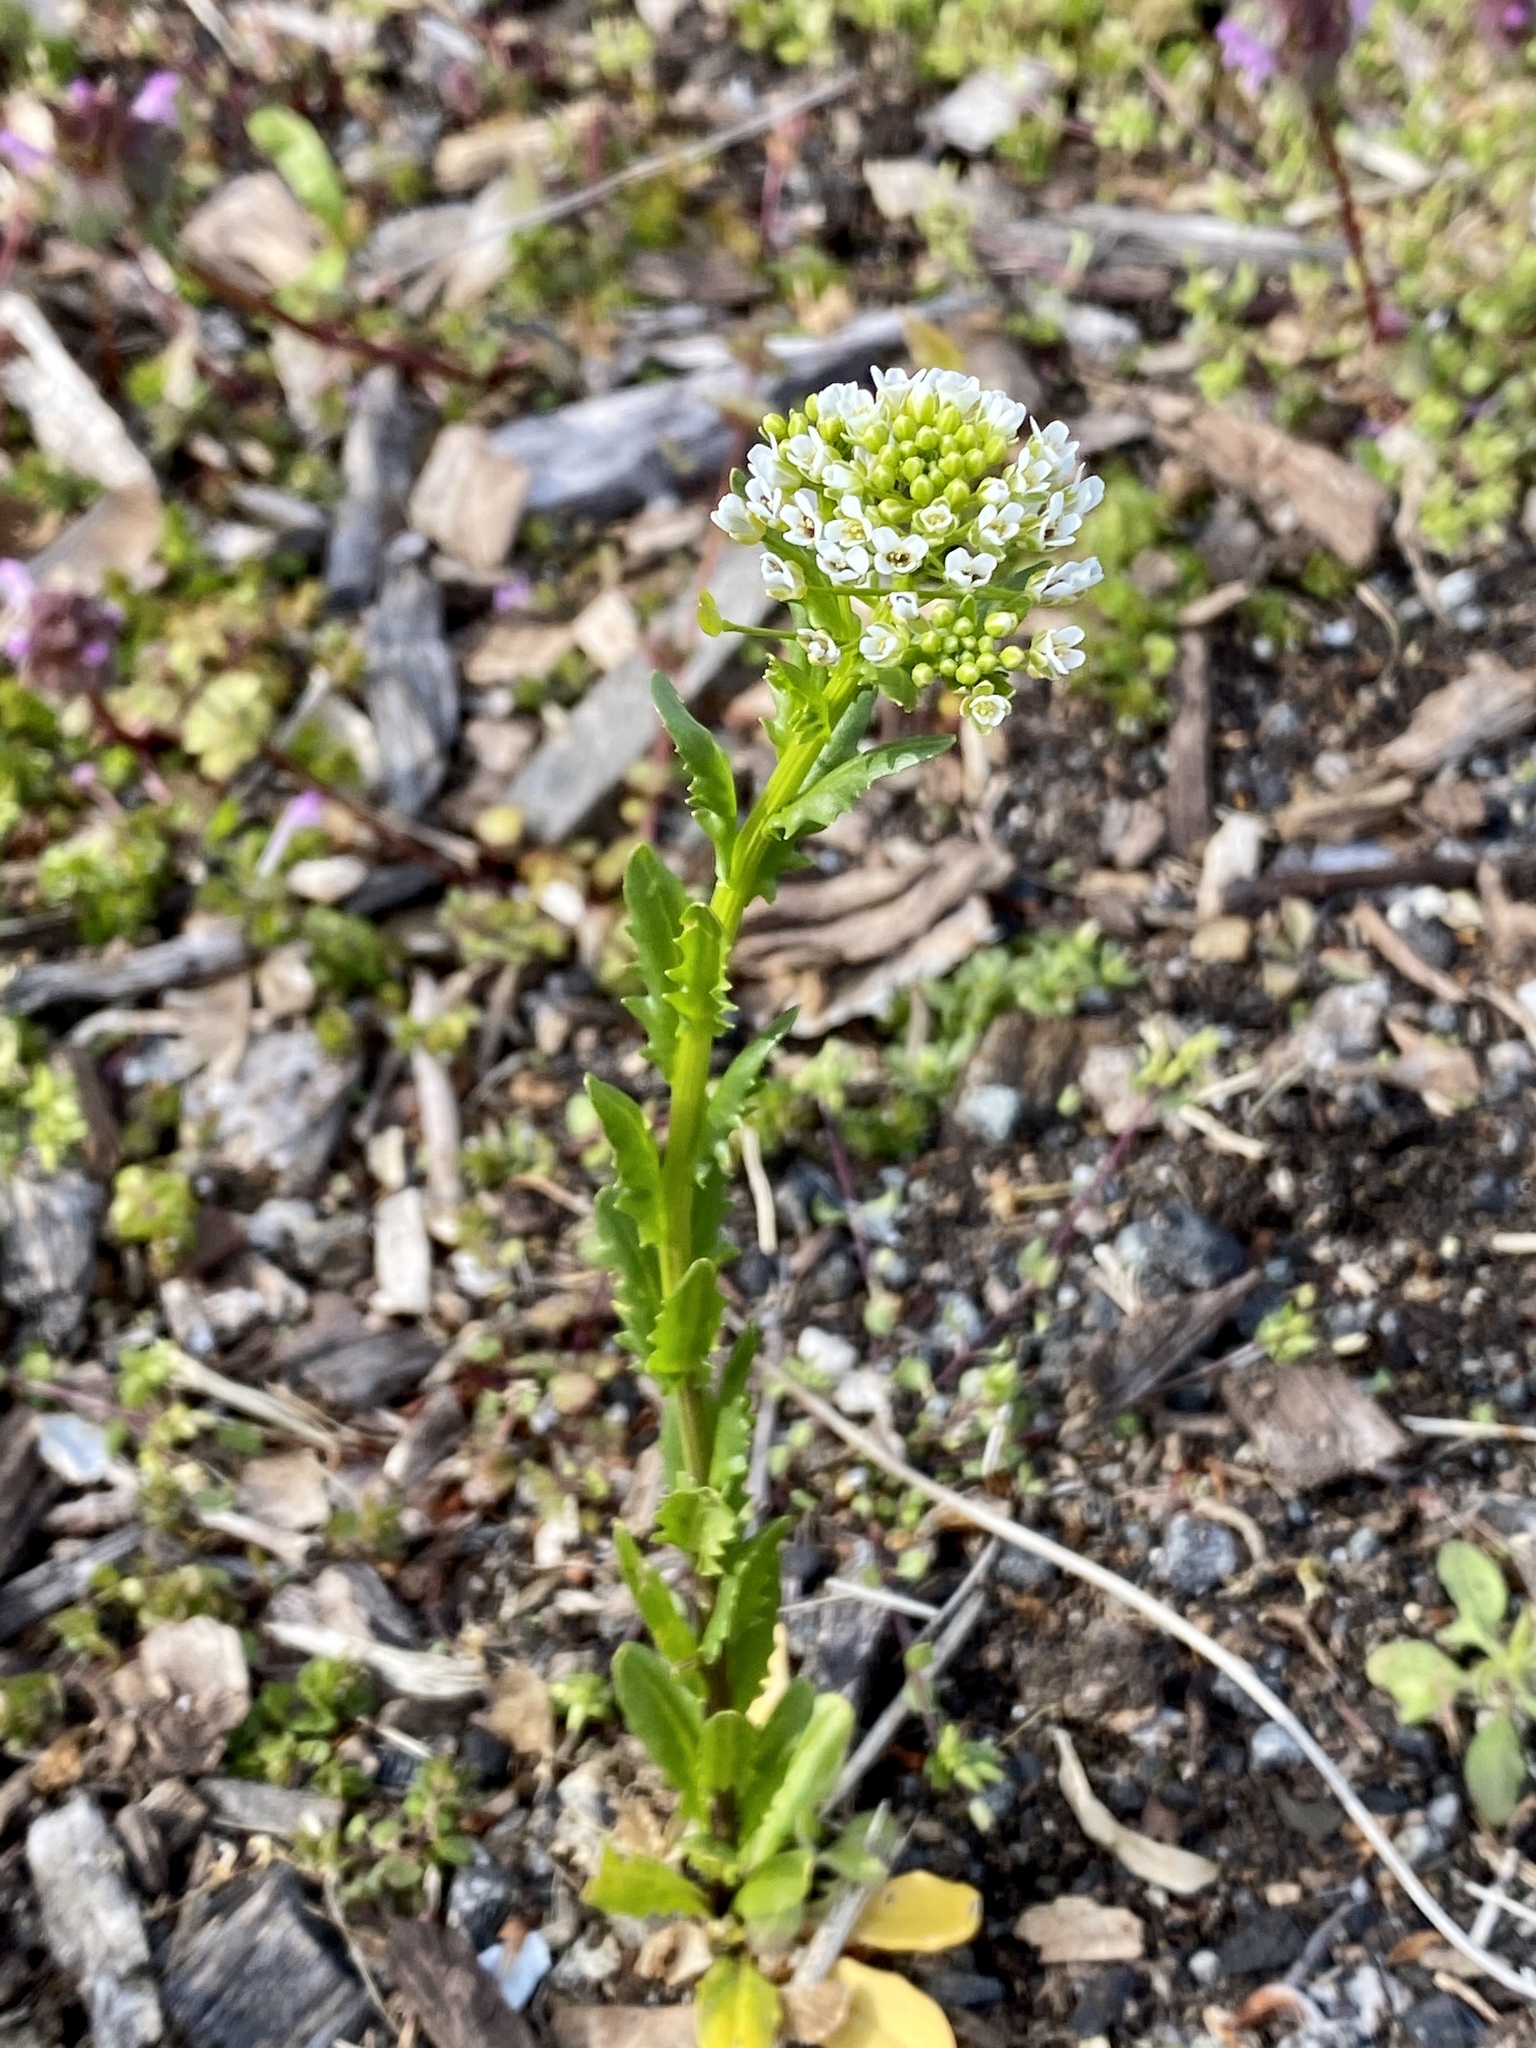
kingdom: Plantae
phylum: Tracheophyta
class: Magnoliopsida
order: Brassicales
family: Brassicaceae
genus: Thlaspi
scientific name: Thlaspi arvense
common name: Field pennycress
